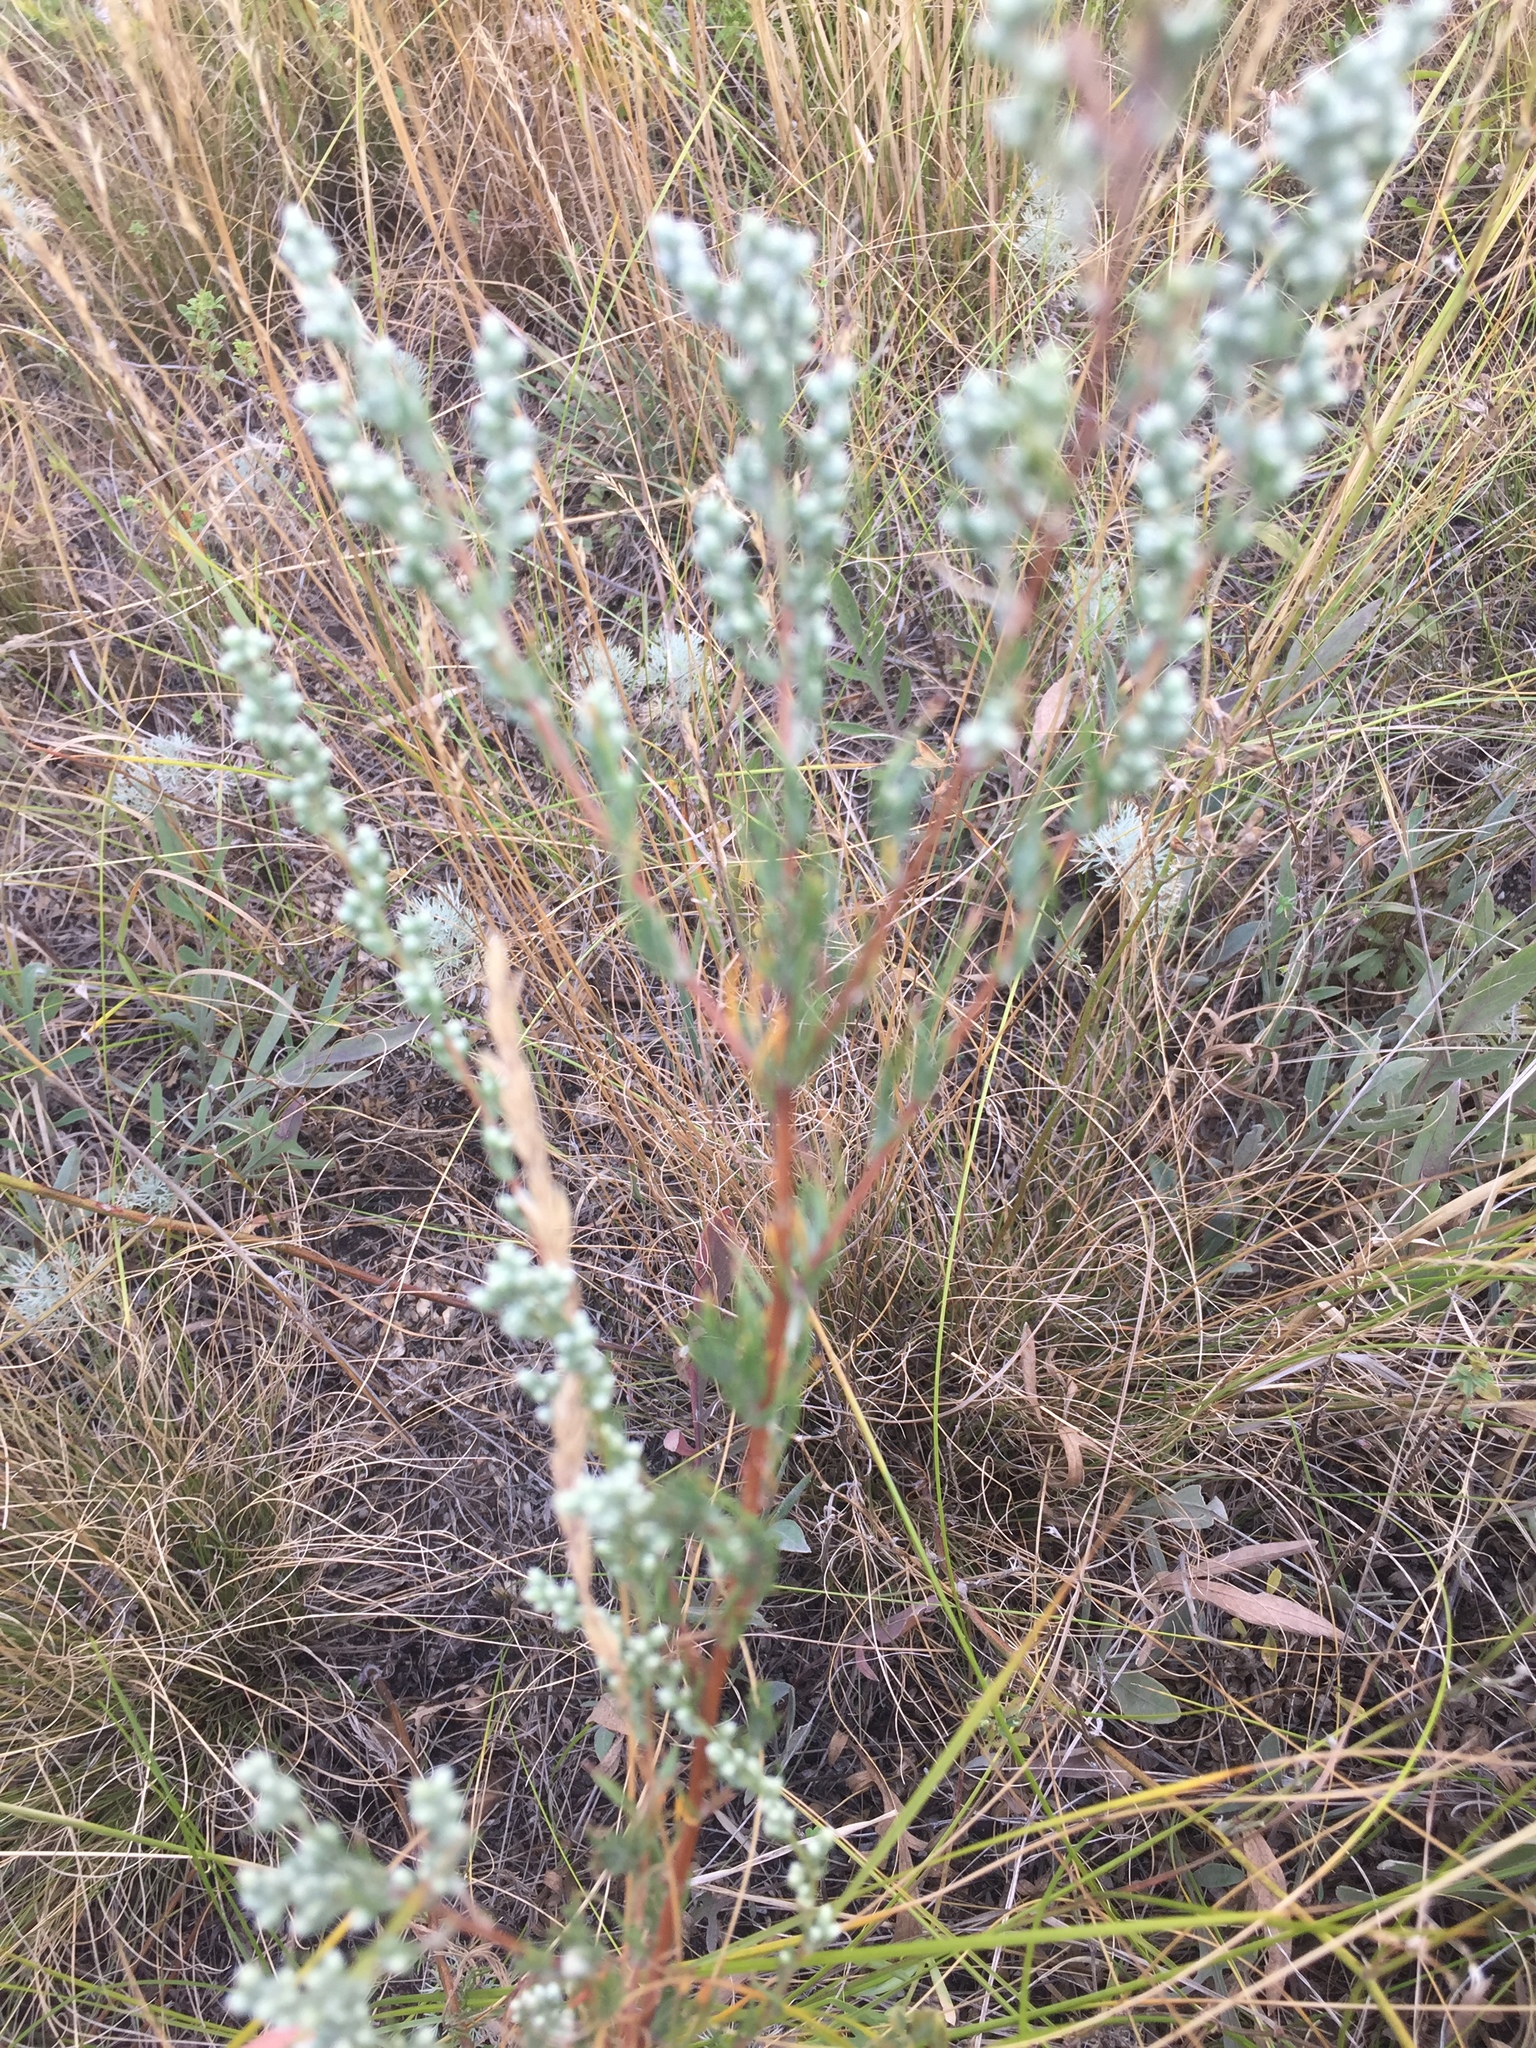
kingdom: Plantae
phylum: Tracheophyta
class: Magnoliopsida
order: Caryophyllales
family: Amaranthaceae
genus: Bassia
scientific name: Bassia prostrata
